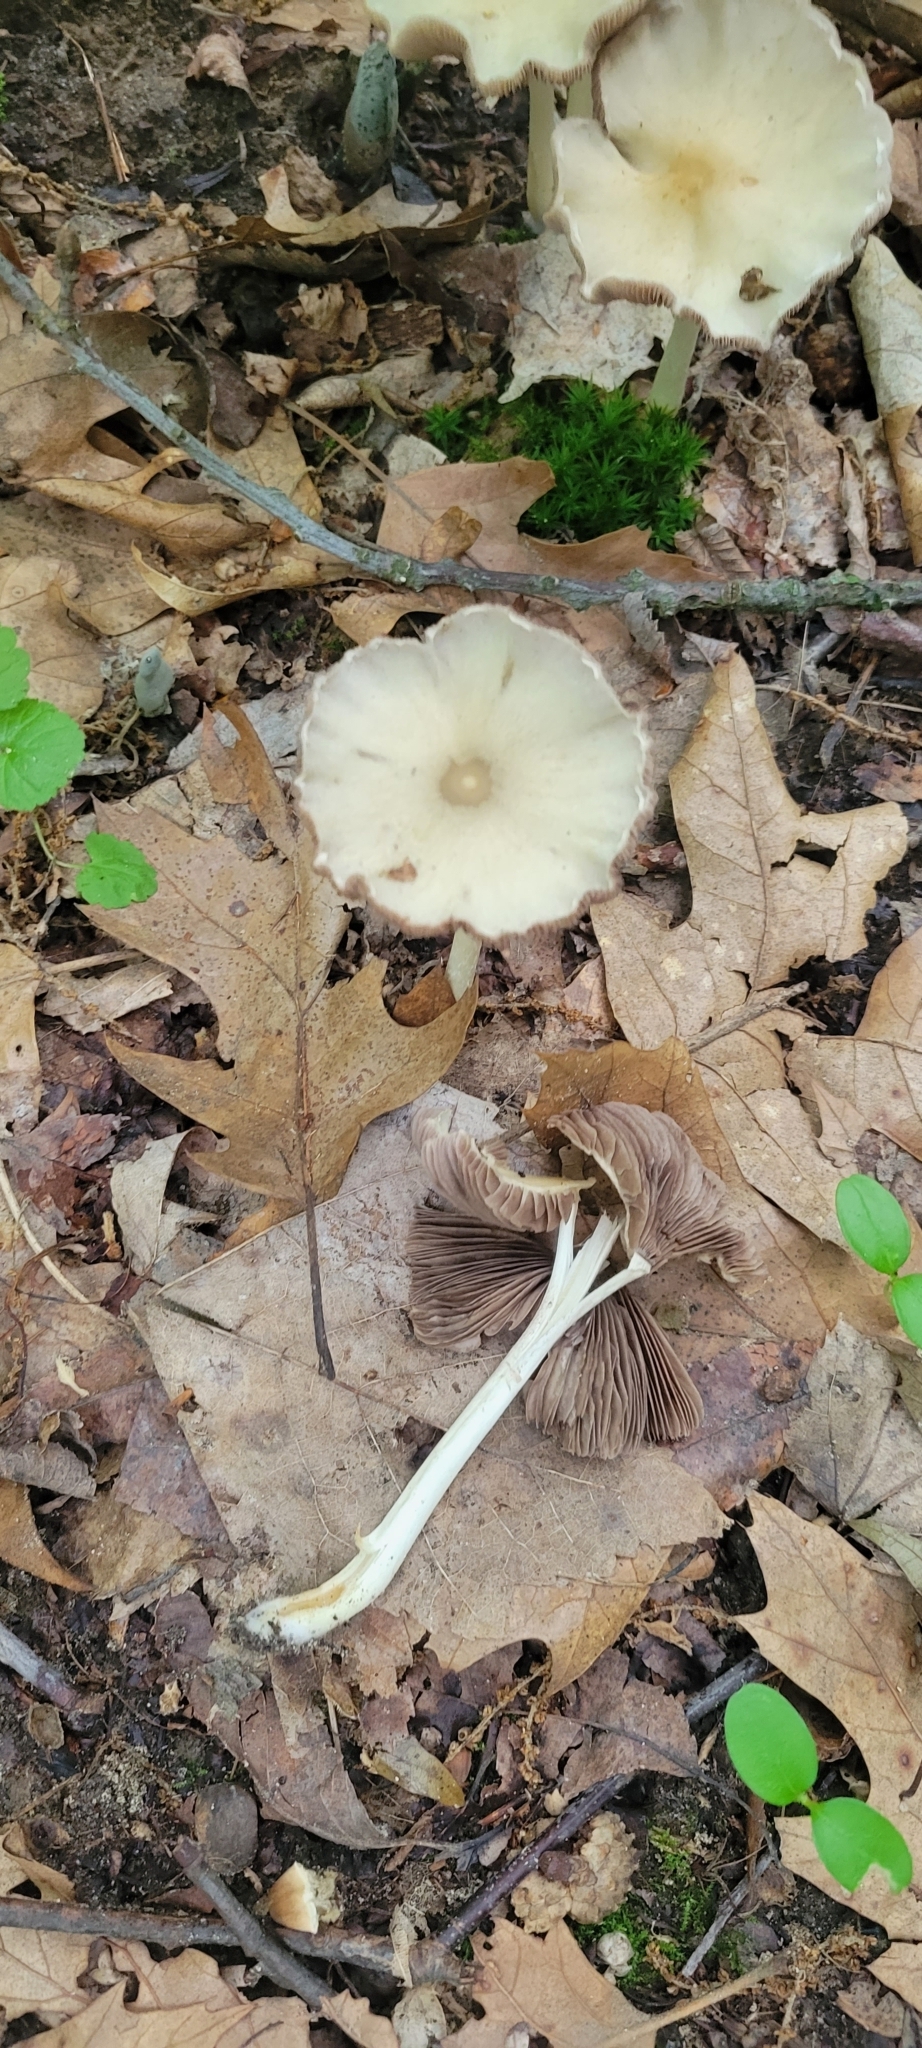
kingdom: Fungi
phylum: Basidiomycota
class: Agaricomycetes
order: Agaricales
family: Psathyrellaceae
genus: Candolleomyces
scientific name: Candolleomyces candolleanus
